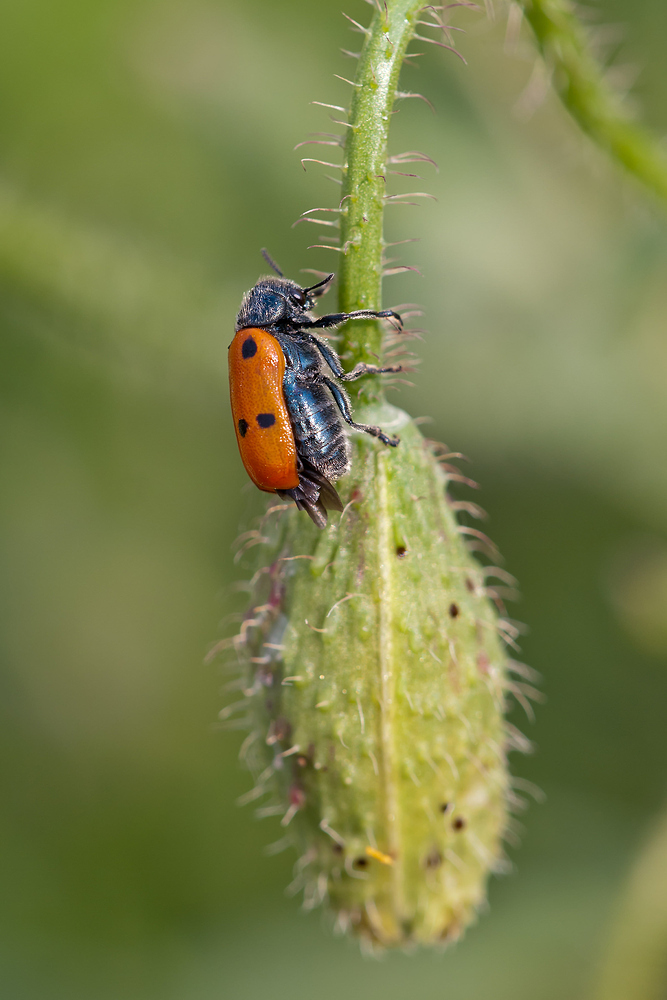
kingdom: Animalia
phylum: Arthropoda
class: Insecta
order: Coleoptera
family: Chrysomelidae
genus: Lachnaia
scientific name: Lachnaia tristigma
